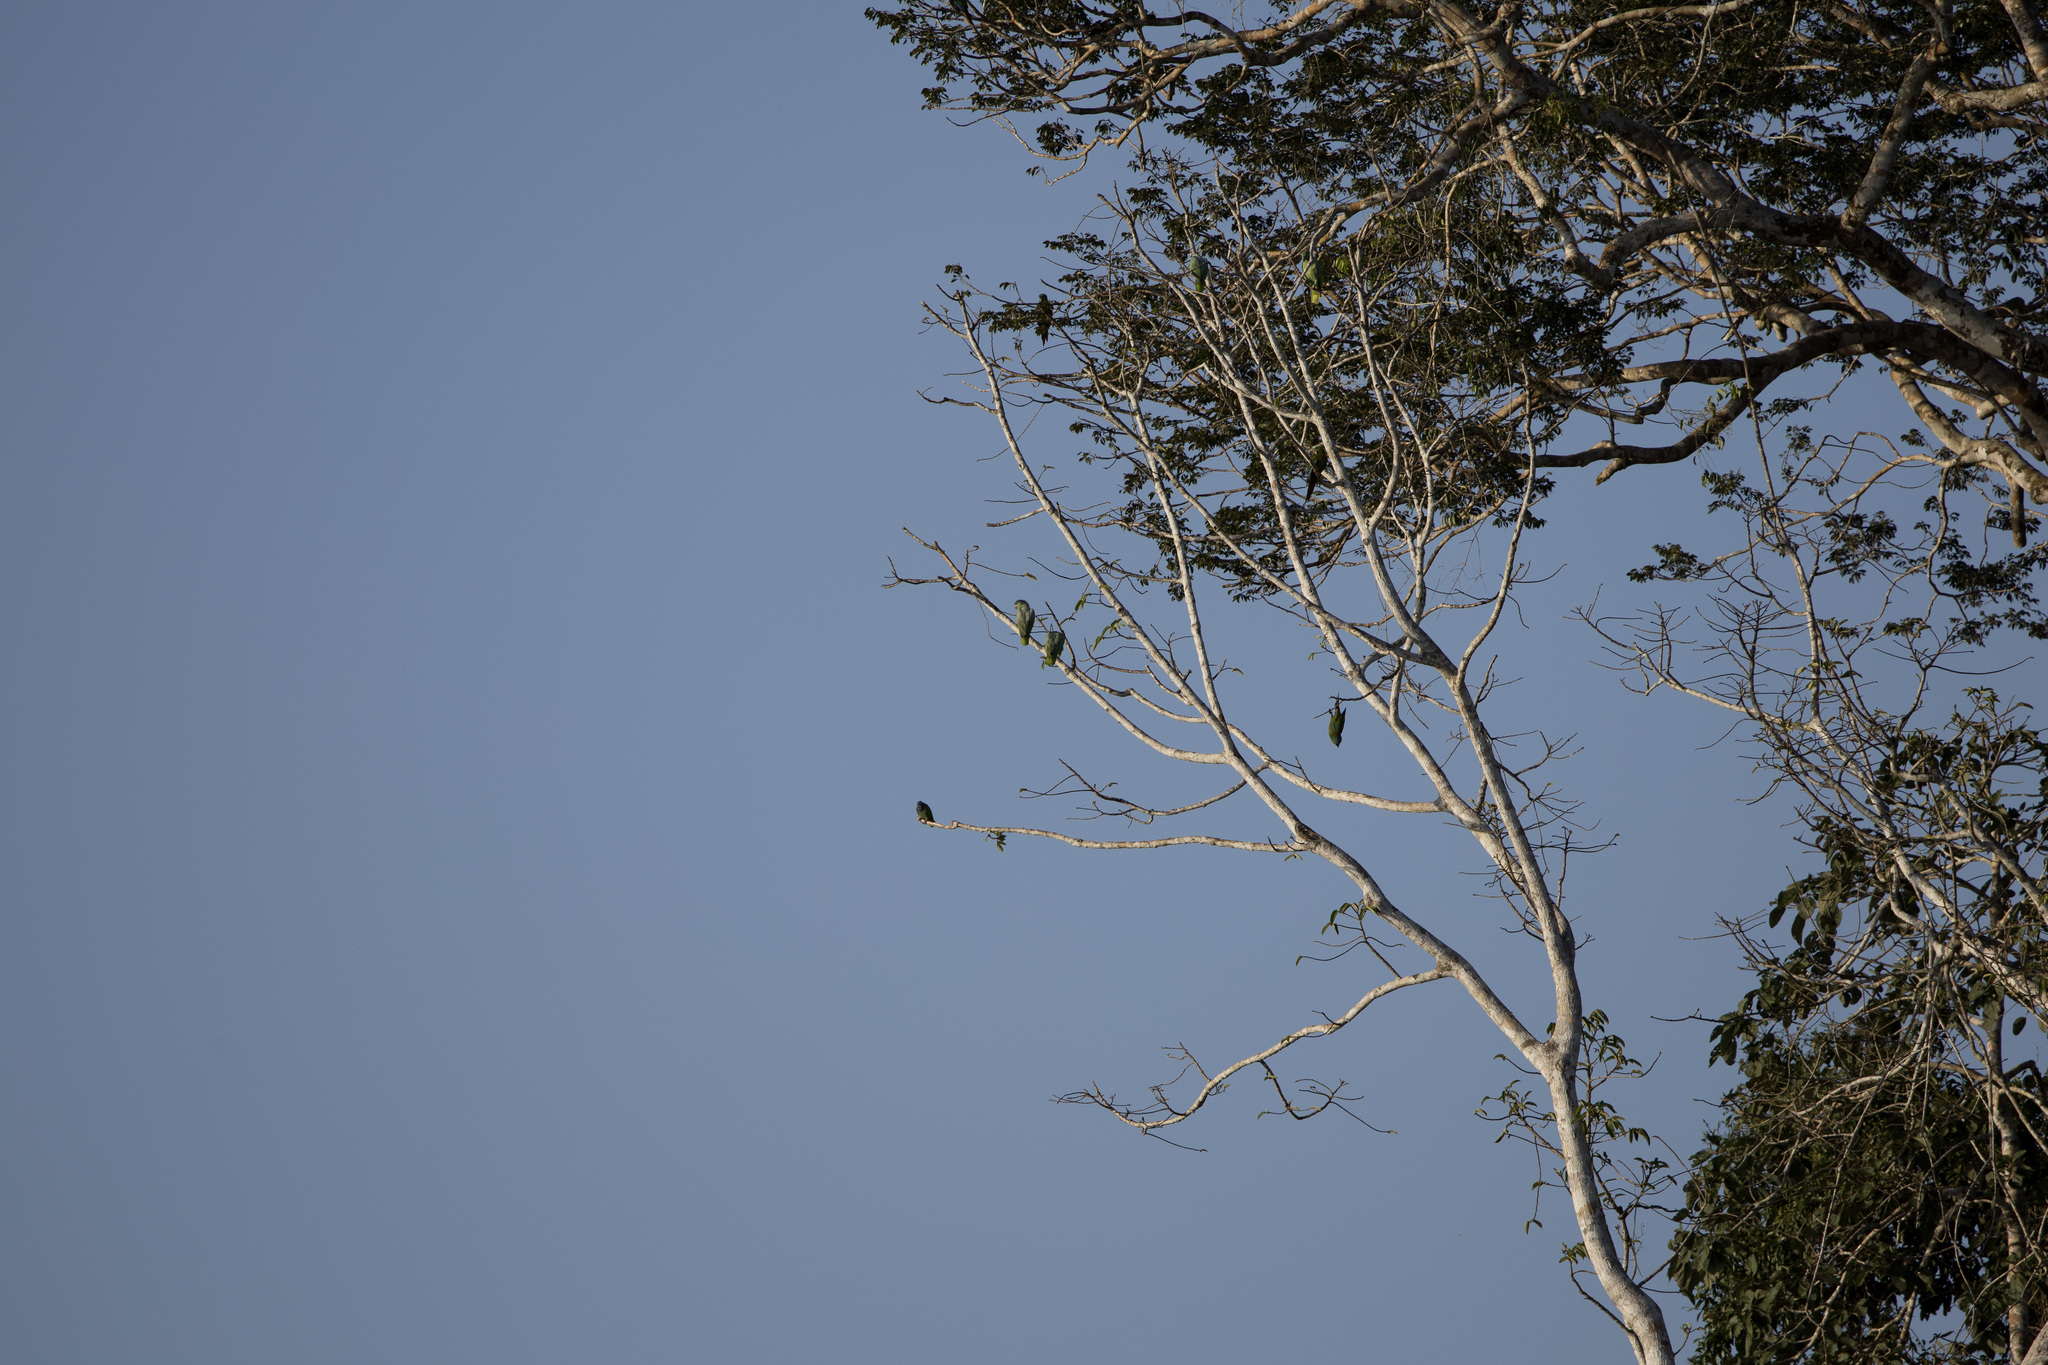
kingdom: Animalia
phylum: Chordata
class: Aves
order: Psittaciformes
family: Psittacidae
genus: Amazona
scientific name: Amazona farinosa
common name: Mealy parrot
